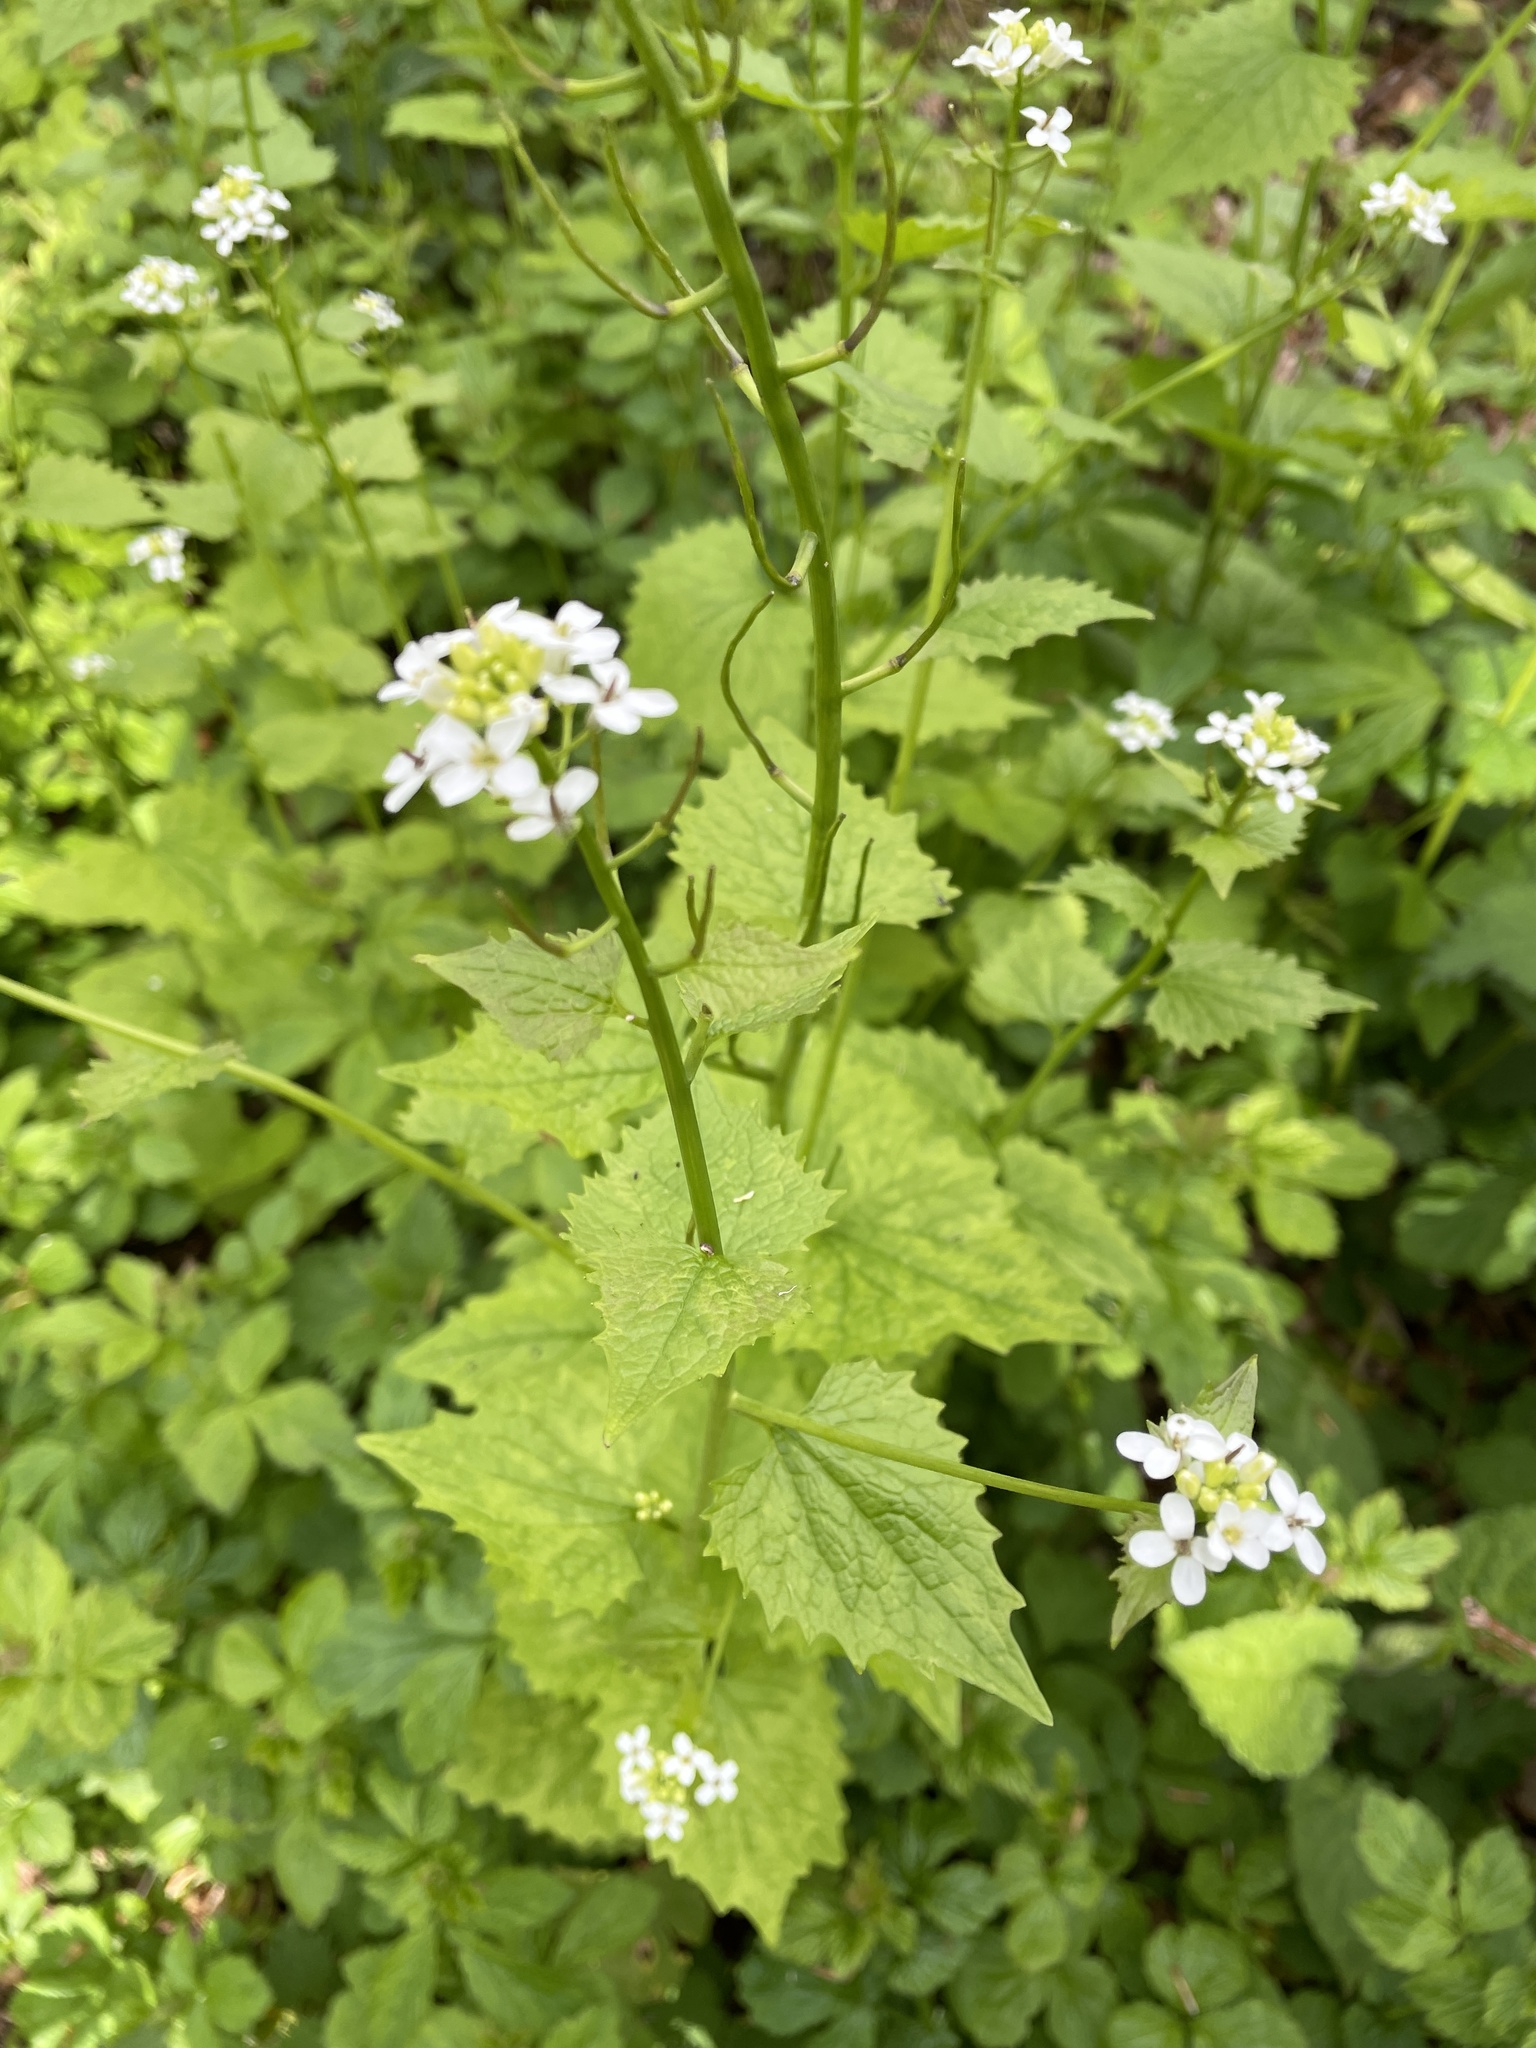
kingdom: Plantae
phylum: Tracheophyta
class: Magnoliopsida
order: Brassicales
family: Brassicaceae
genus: Alliaria
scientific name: Alliaria petiolata
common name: Garlic mustard
